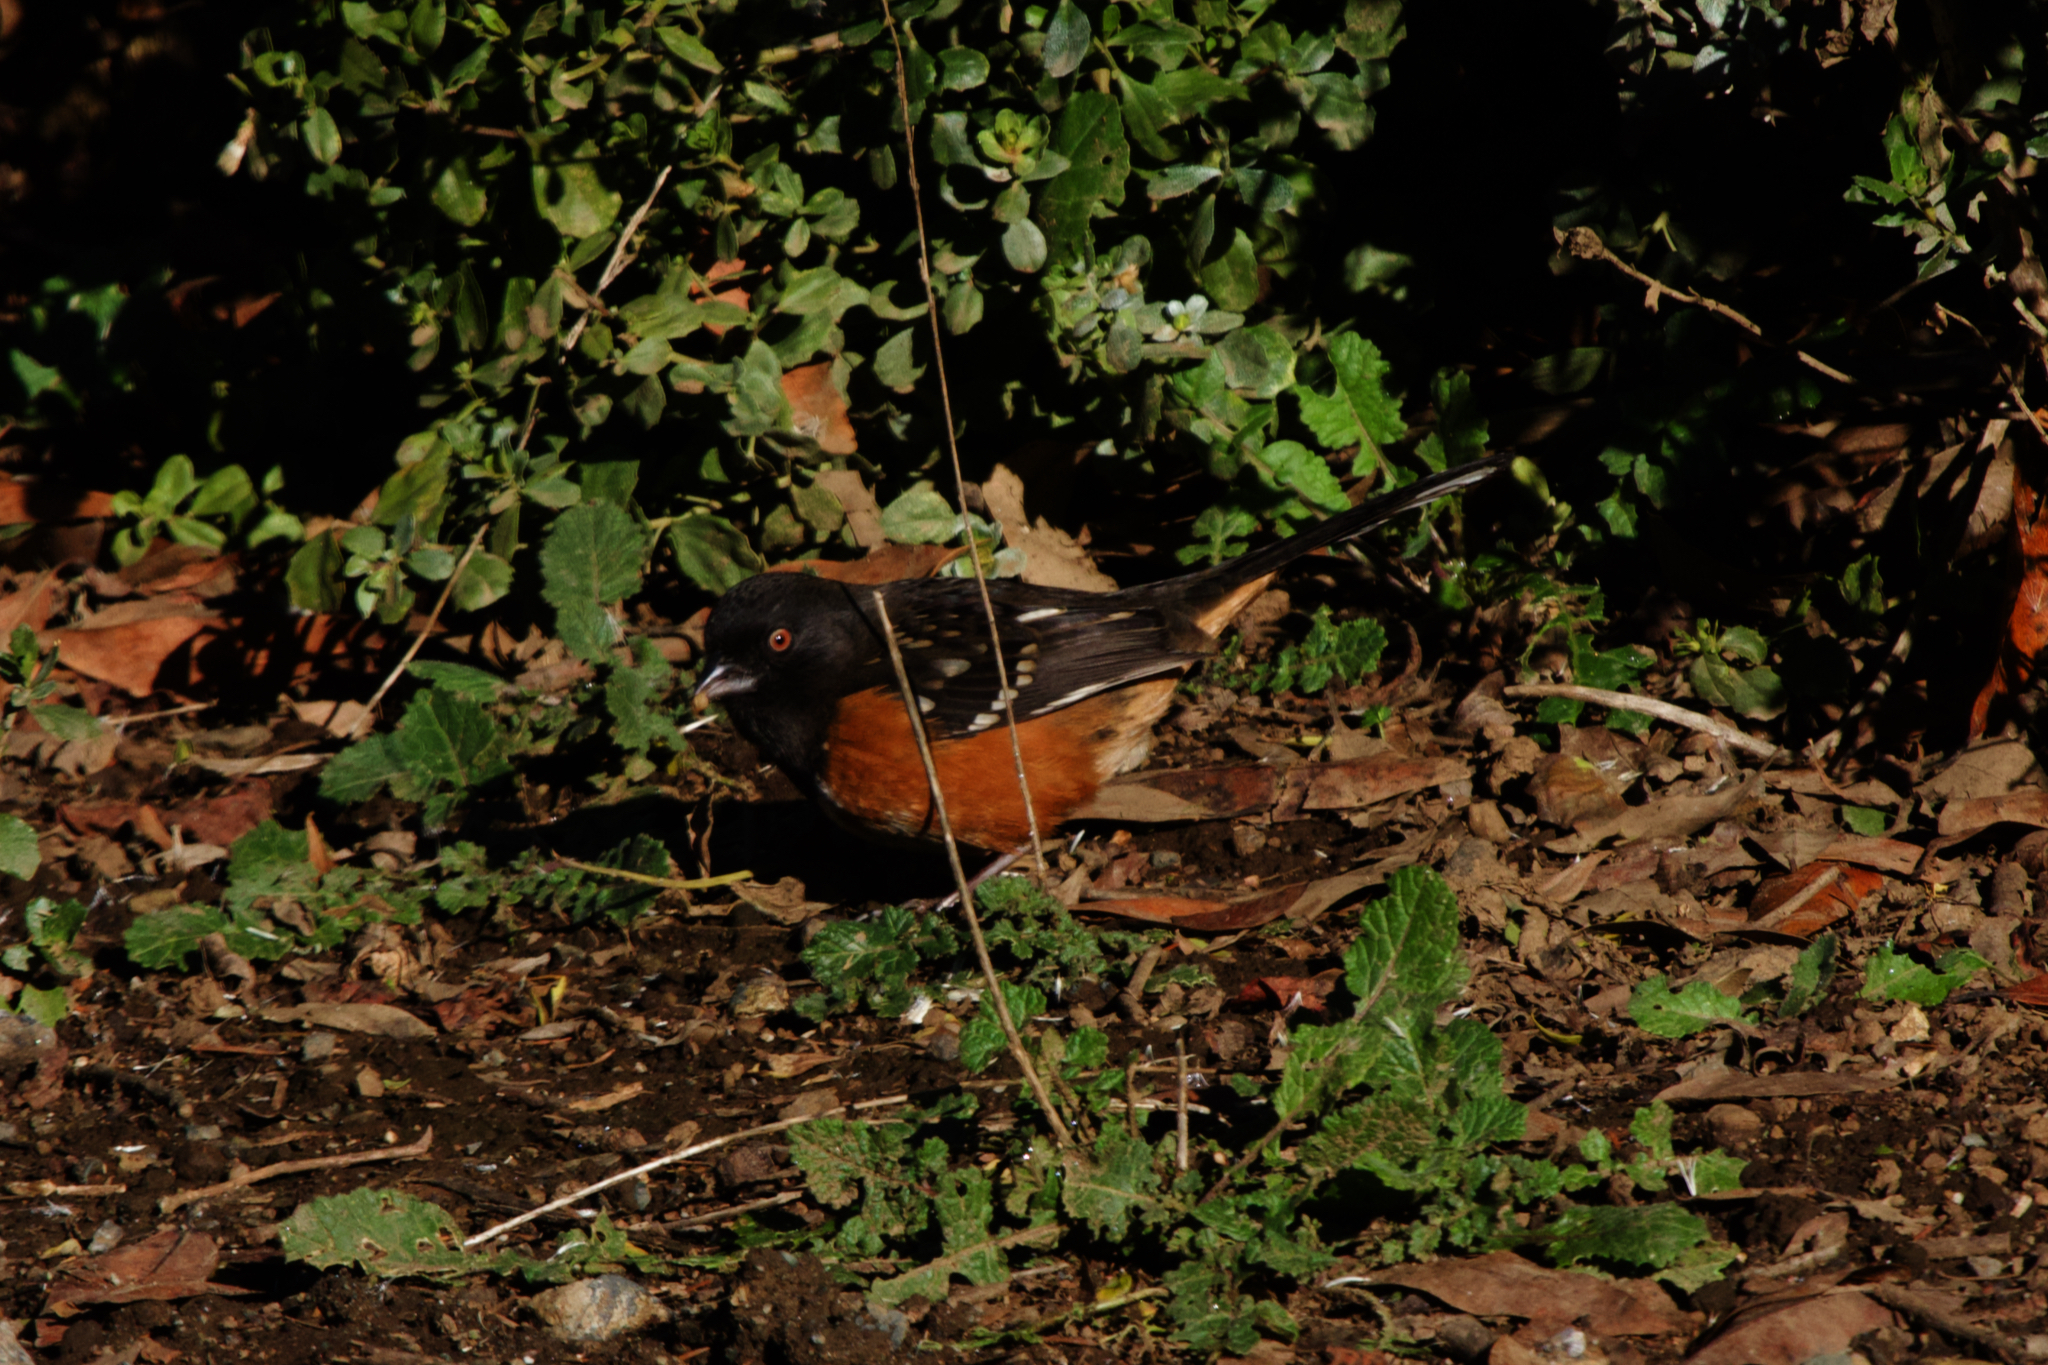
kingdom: Animalia
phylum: Chordata
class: Aves
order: Passeriformes
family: Passerellidae
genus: Pipilo
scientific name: Pipilo maculatus
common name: Spotted towhee
